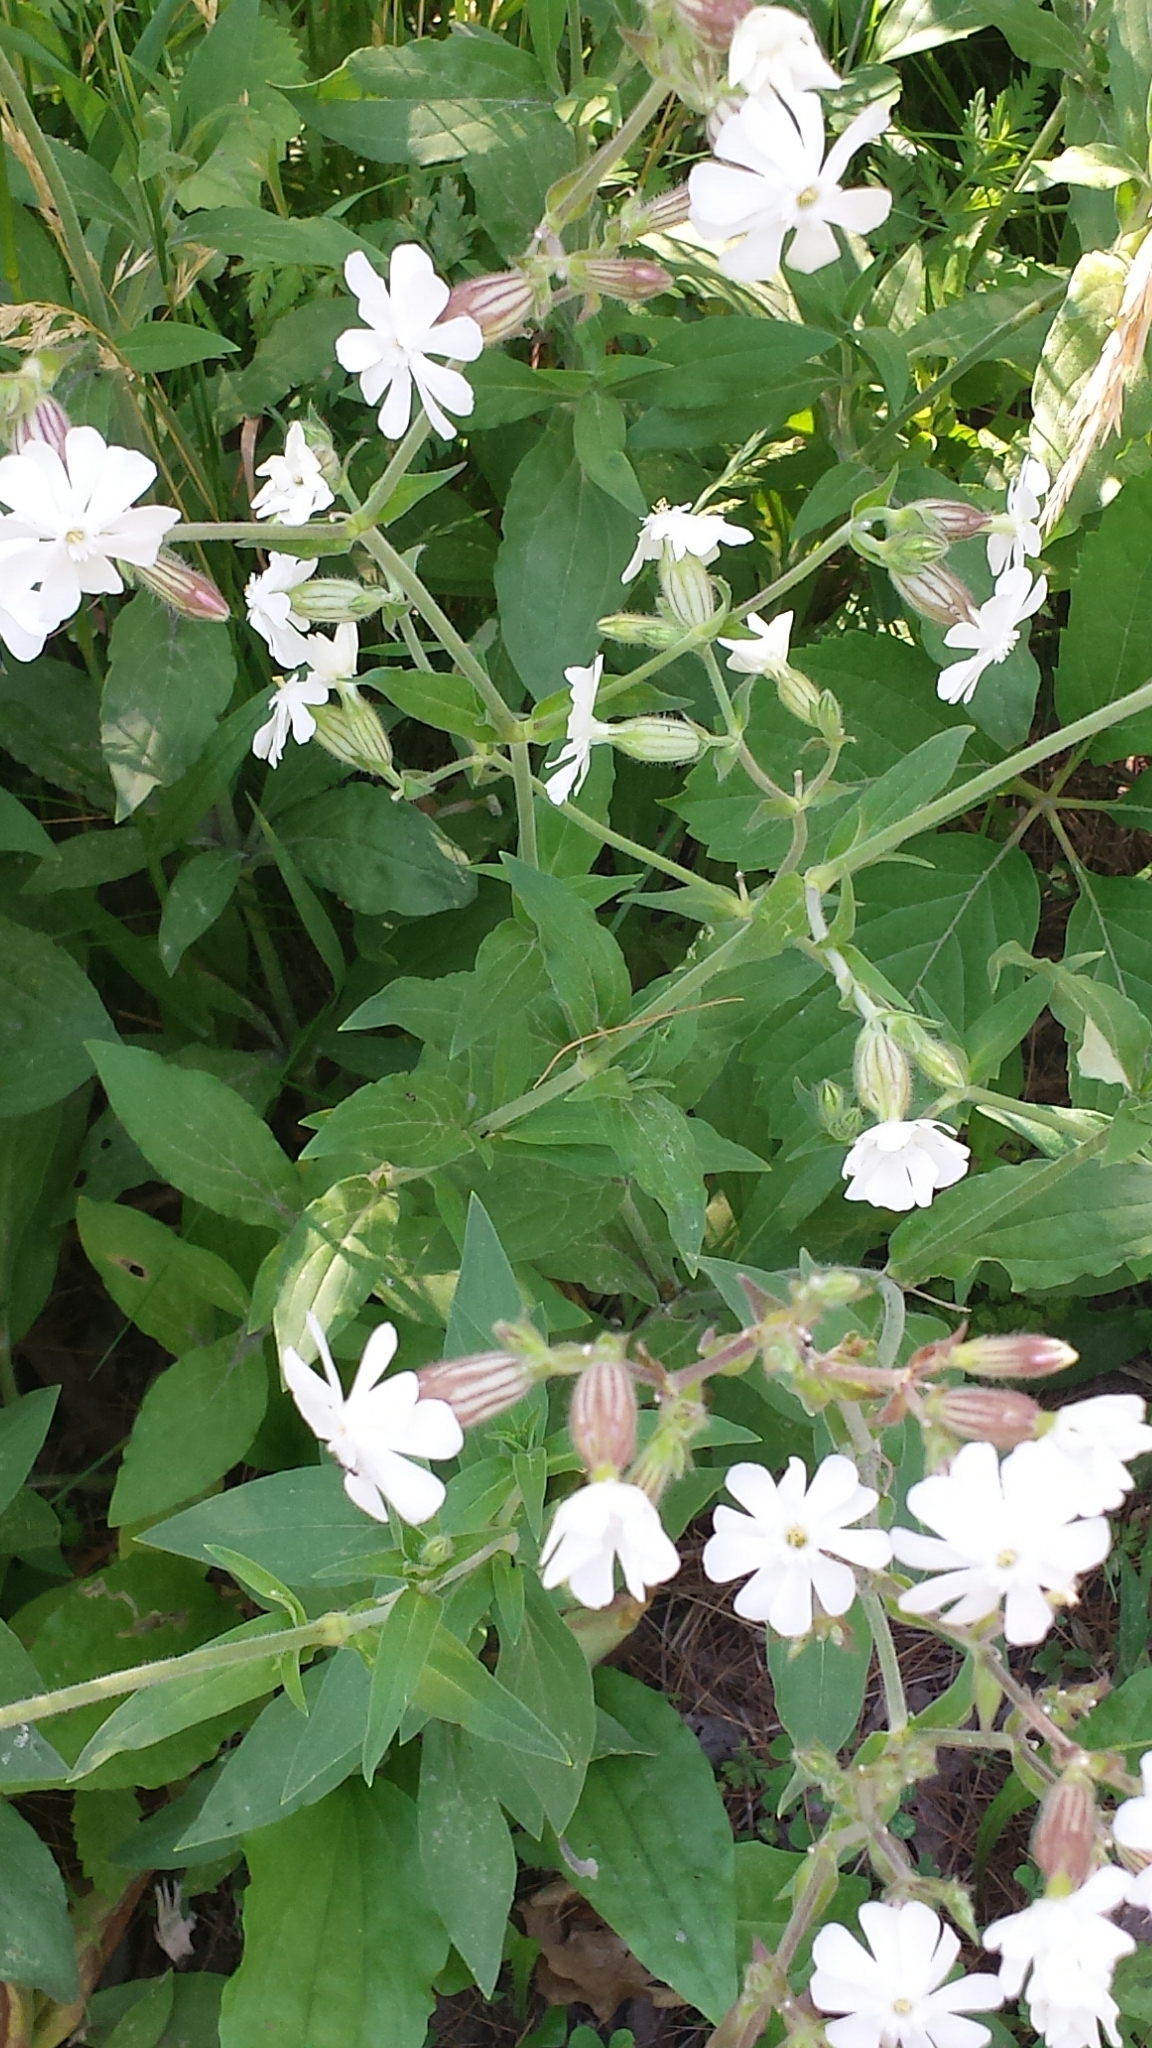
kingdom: Plantae
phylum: Tracheophyta
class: Magnoliopsida
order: Caryophyllales
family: Caryophyllaceae
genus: Silene
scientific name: Silene latifolia
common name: White campion
